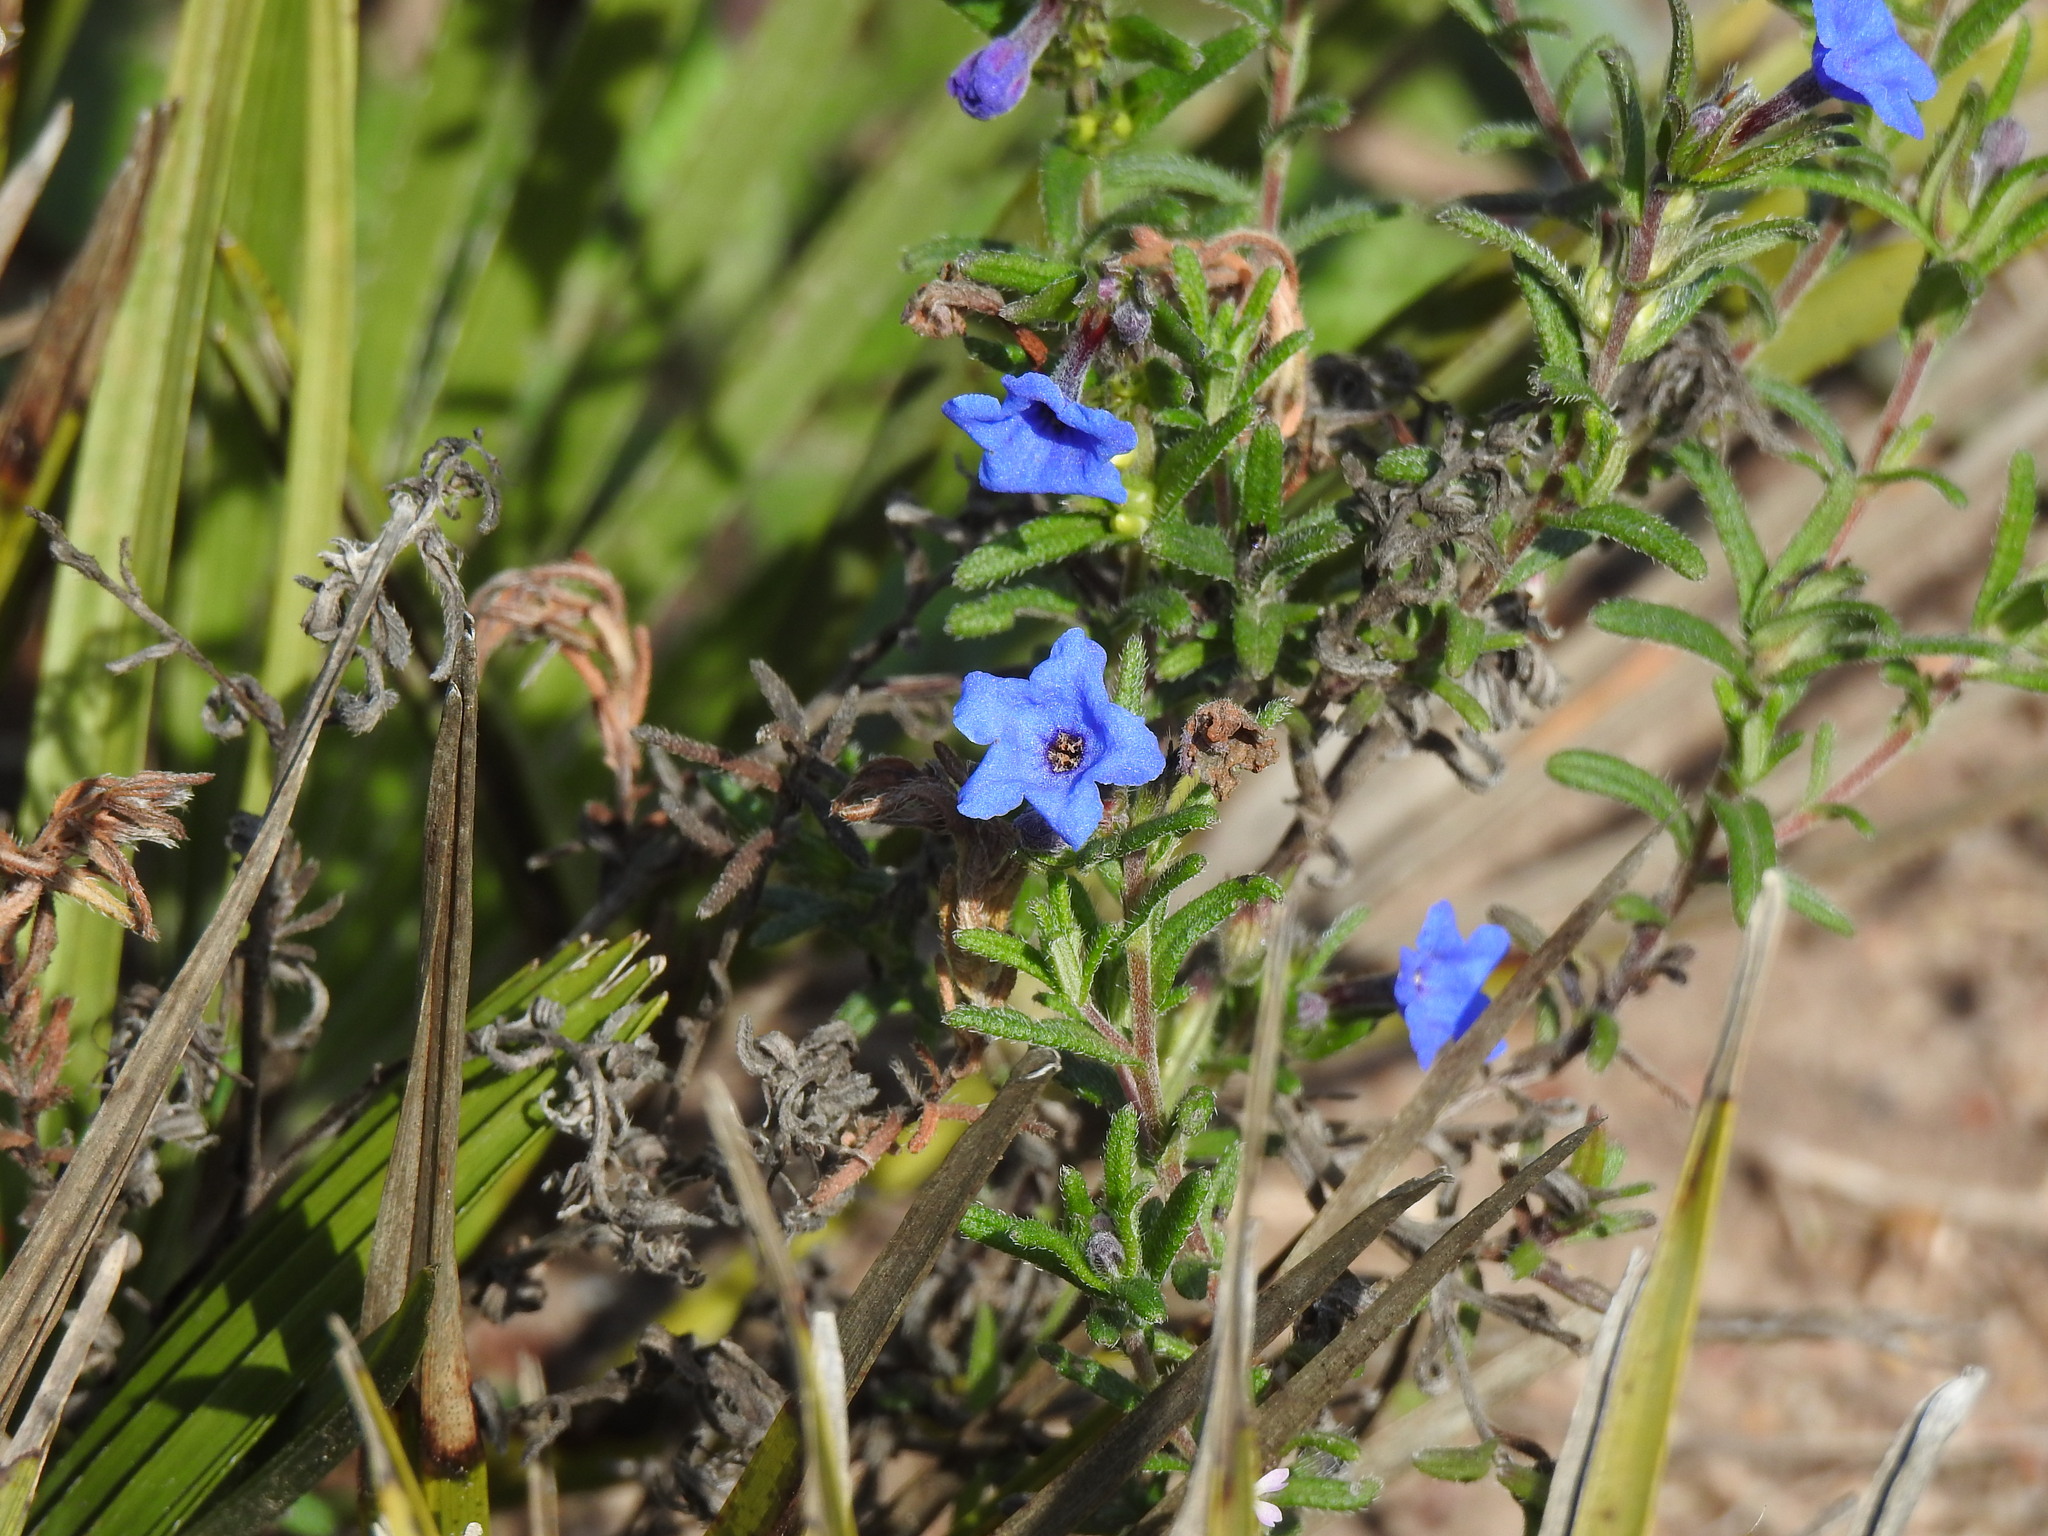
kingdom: Plantae
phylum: Tracheophyta
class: Magnoliopsida
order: Boraginales
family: Boraginaceae
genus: Glandora
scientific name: Glandora prostrata
